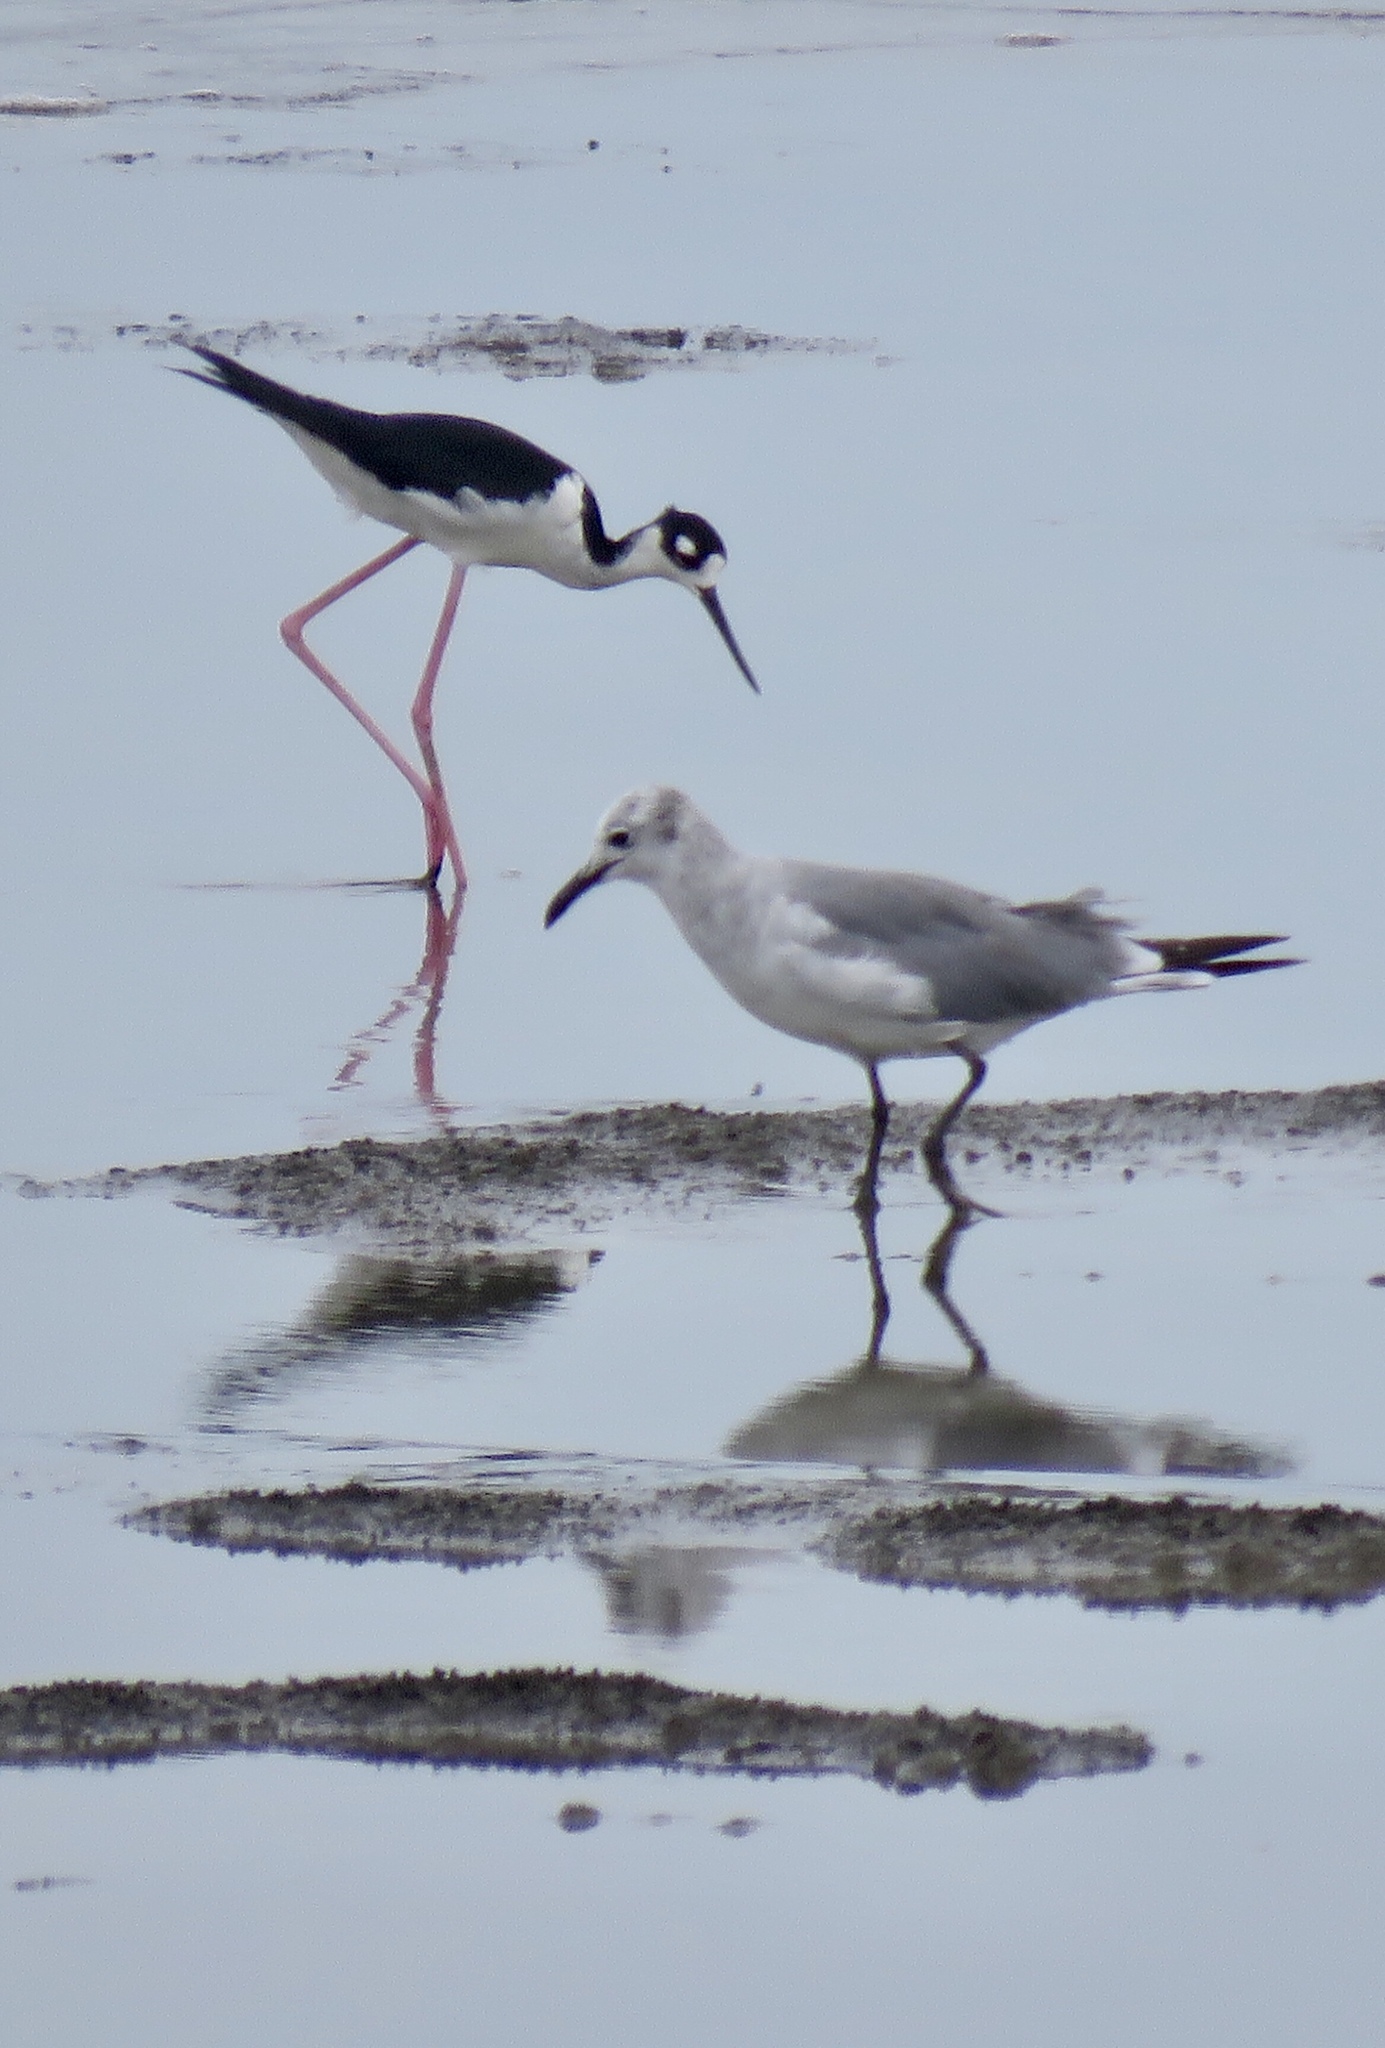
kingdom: Animalia
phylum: Chordata
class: Aves
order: Charadriiformes
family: Laridae
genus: Leucophaeus
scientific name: Leucophaeus atricilla
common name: Laughing gull
